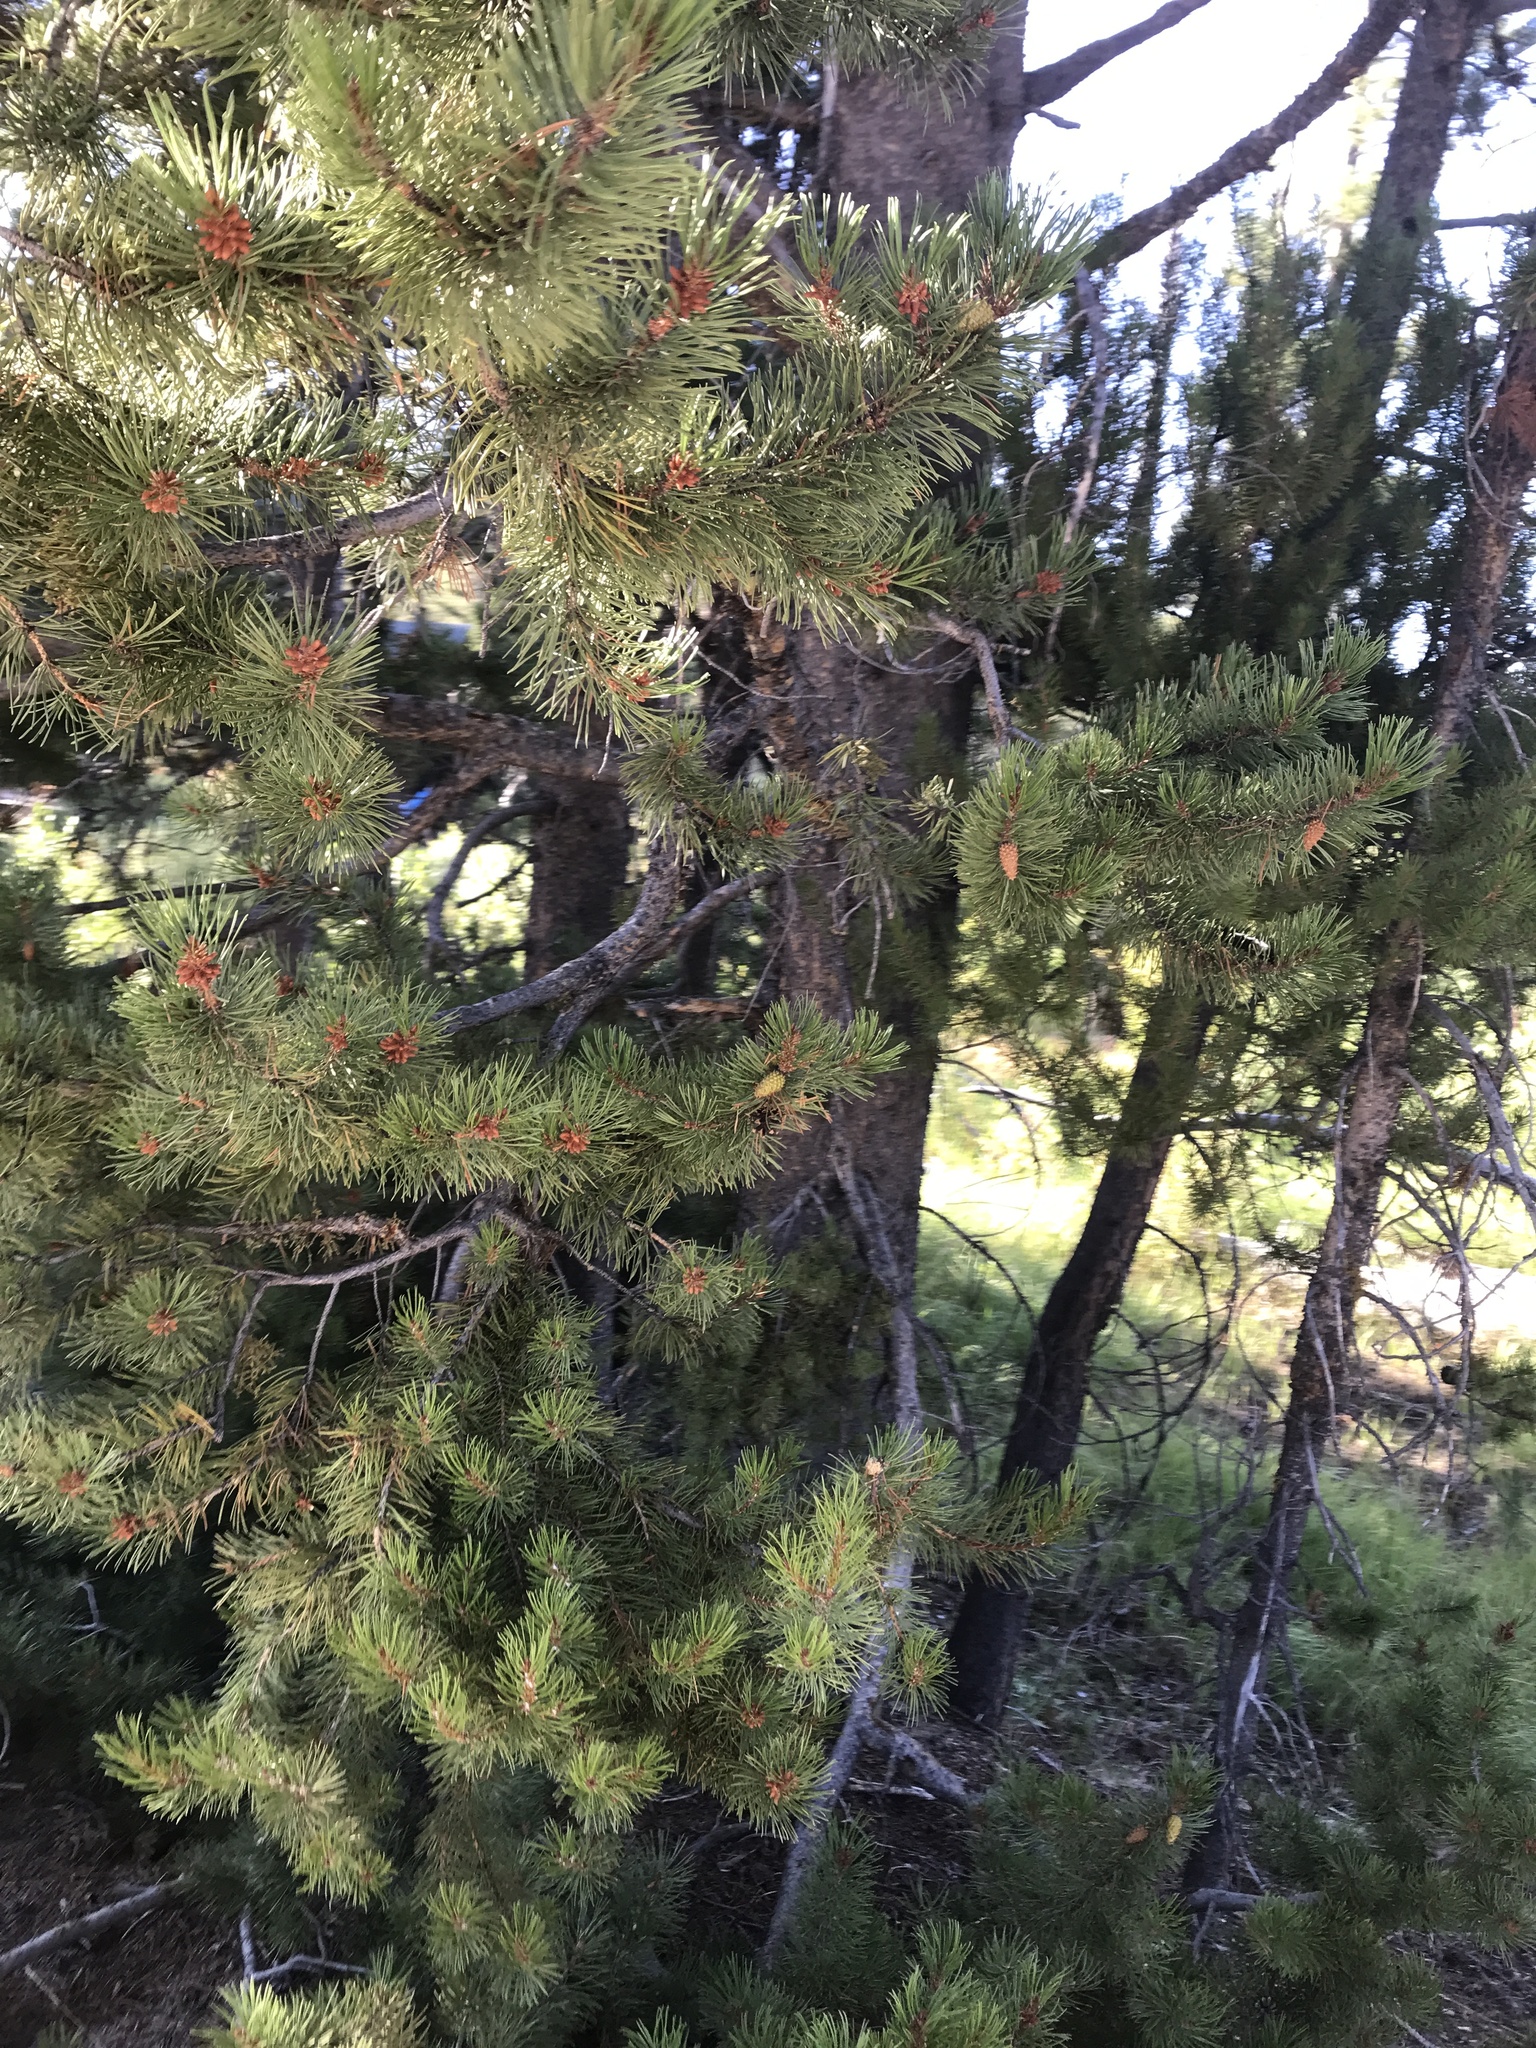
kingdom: Plantae
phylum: Tracheophyta
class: Pinopsida
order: Pinales
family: Pinaceae
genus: Pinus
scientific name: Pinus contorta
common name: Lodgepole pine
